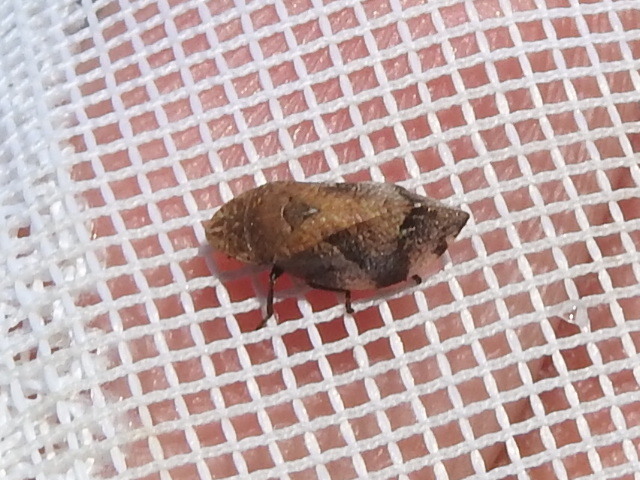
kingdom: Animalia
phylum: Arthropoda
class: Insecta
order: Hemiptera
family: Aphrophoridae
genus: Lepyronia
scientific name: Lepyronia quadrangularis
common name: Diamond-backed spittlebug
